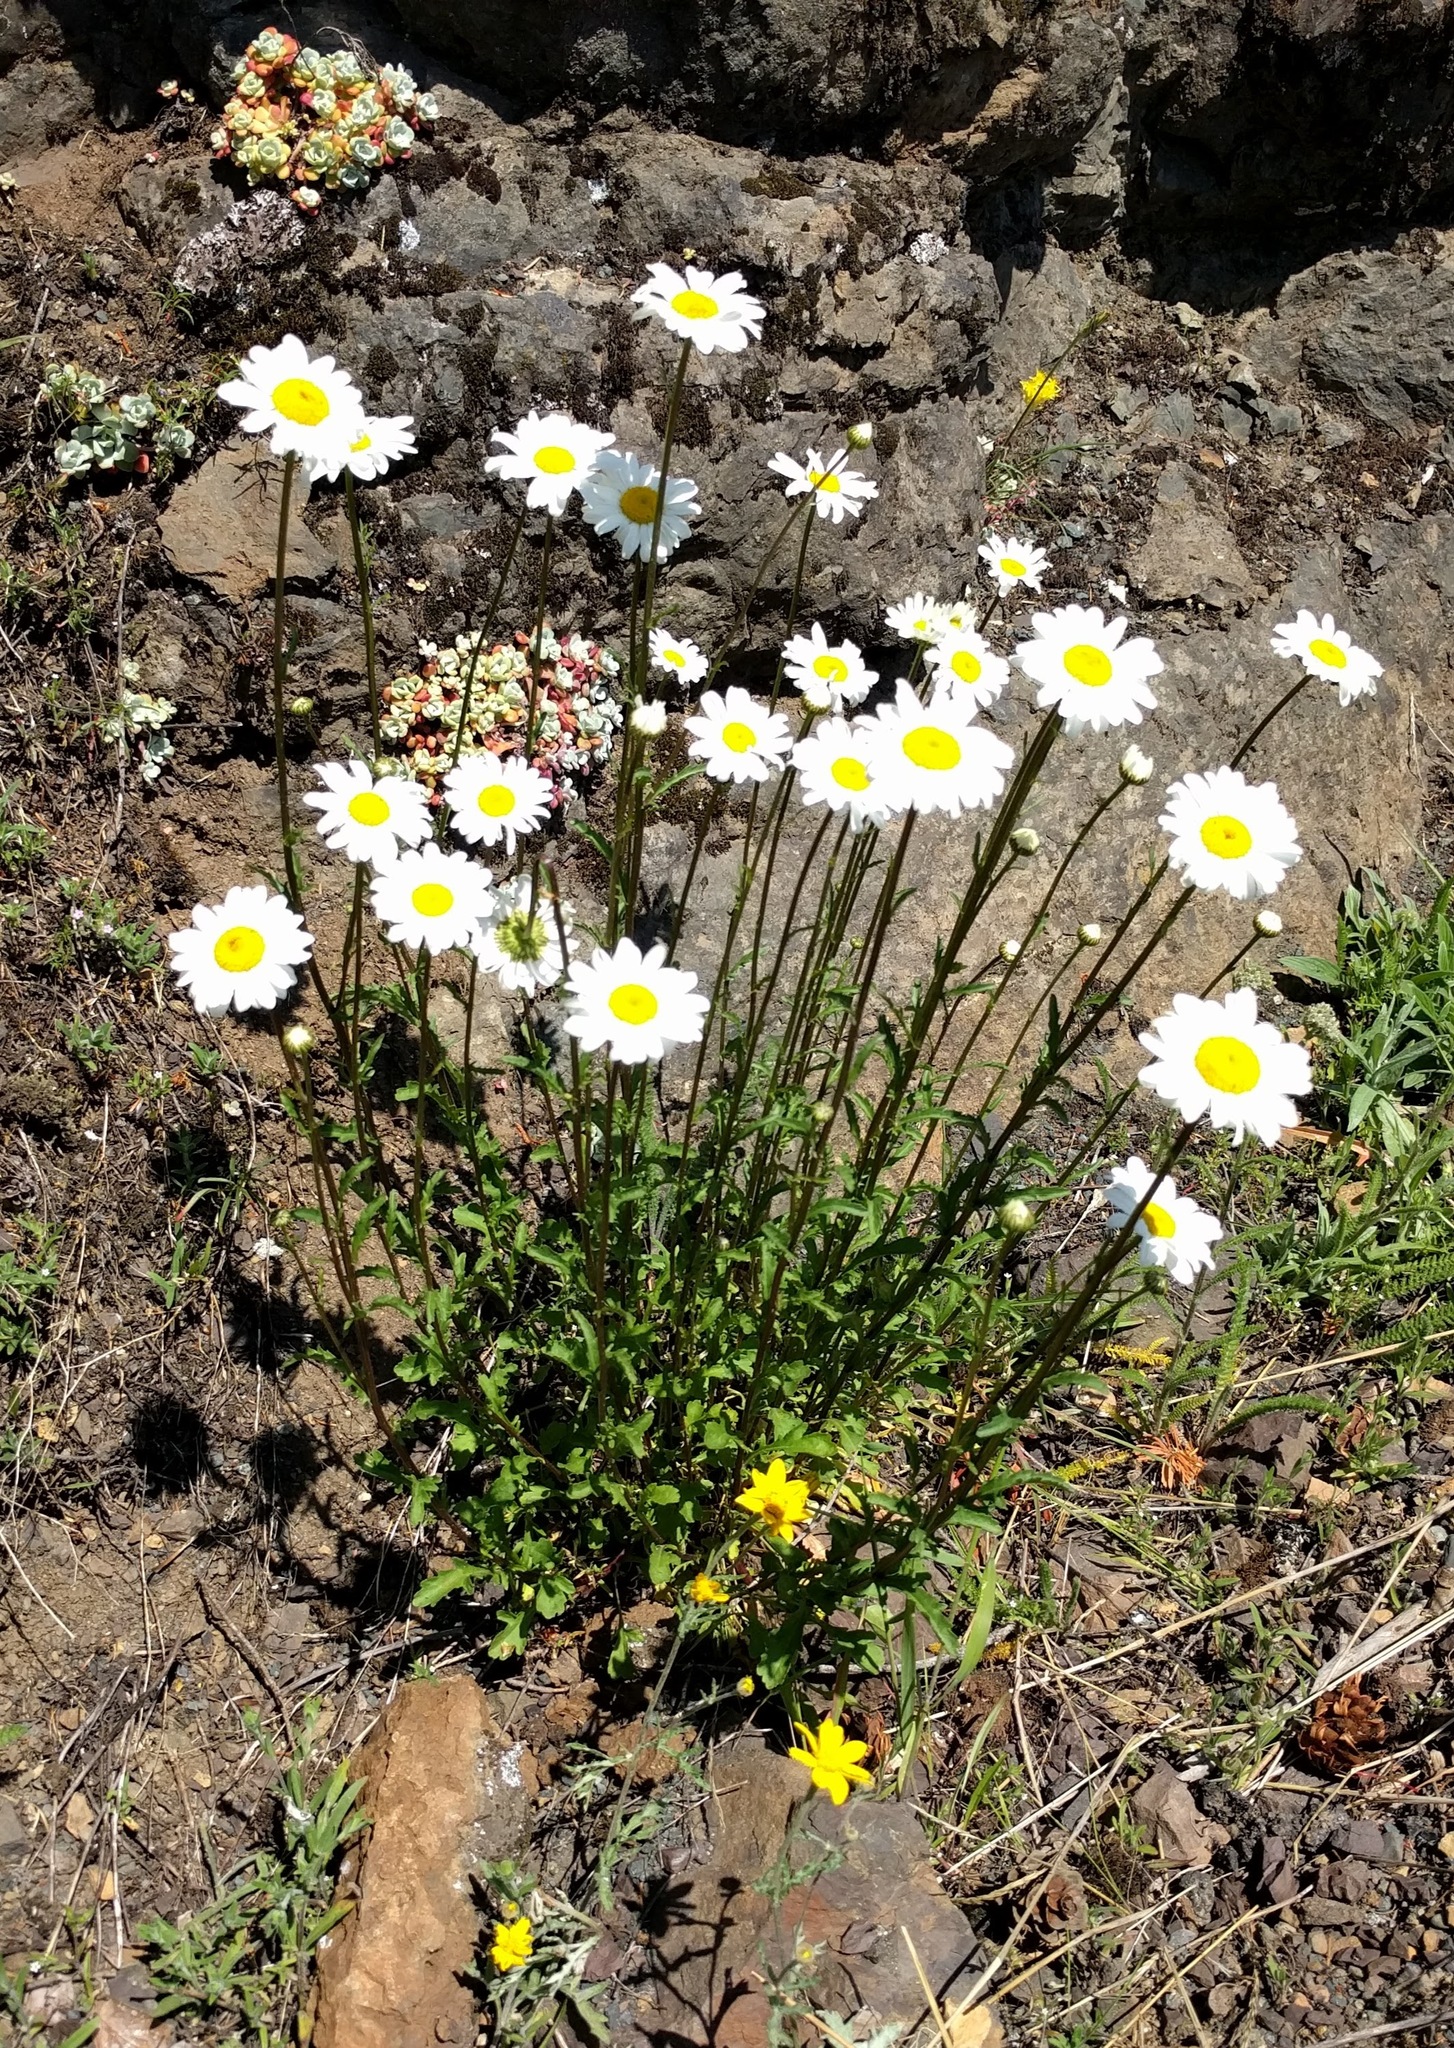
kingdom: Plantae
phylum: Tracheophyta
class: Magnoliopsida
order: Asterales
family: Asteraceae
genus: Leucanthemum
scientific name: Leucanthemum vulgare
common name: Oxeye daisy
